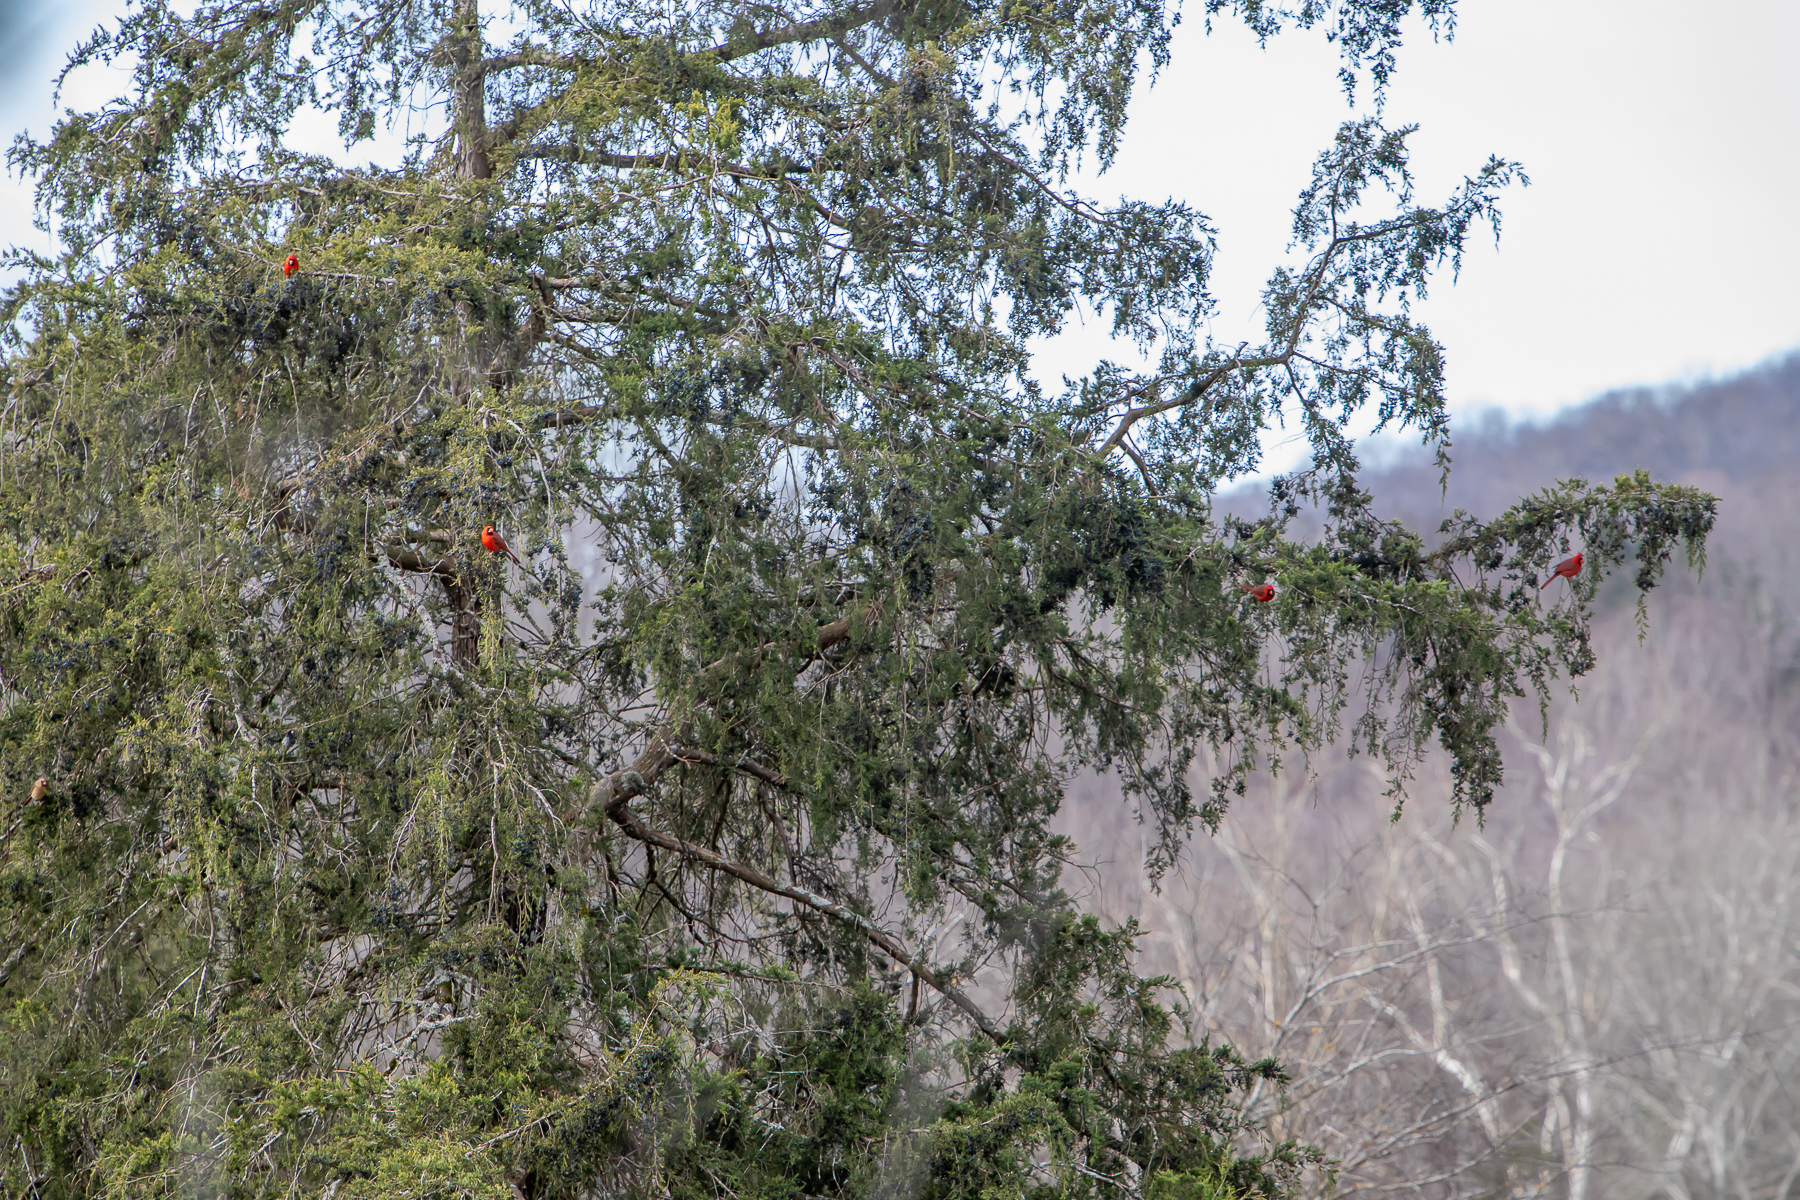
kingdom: Animalia
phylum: Chordata
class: Aves
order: Passeriformes
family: Cardinalidae
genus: Cardinalis
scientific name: Cardinalis cardinalis
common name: Northern cardinal
